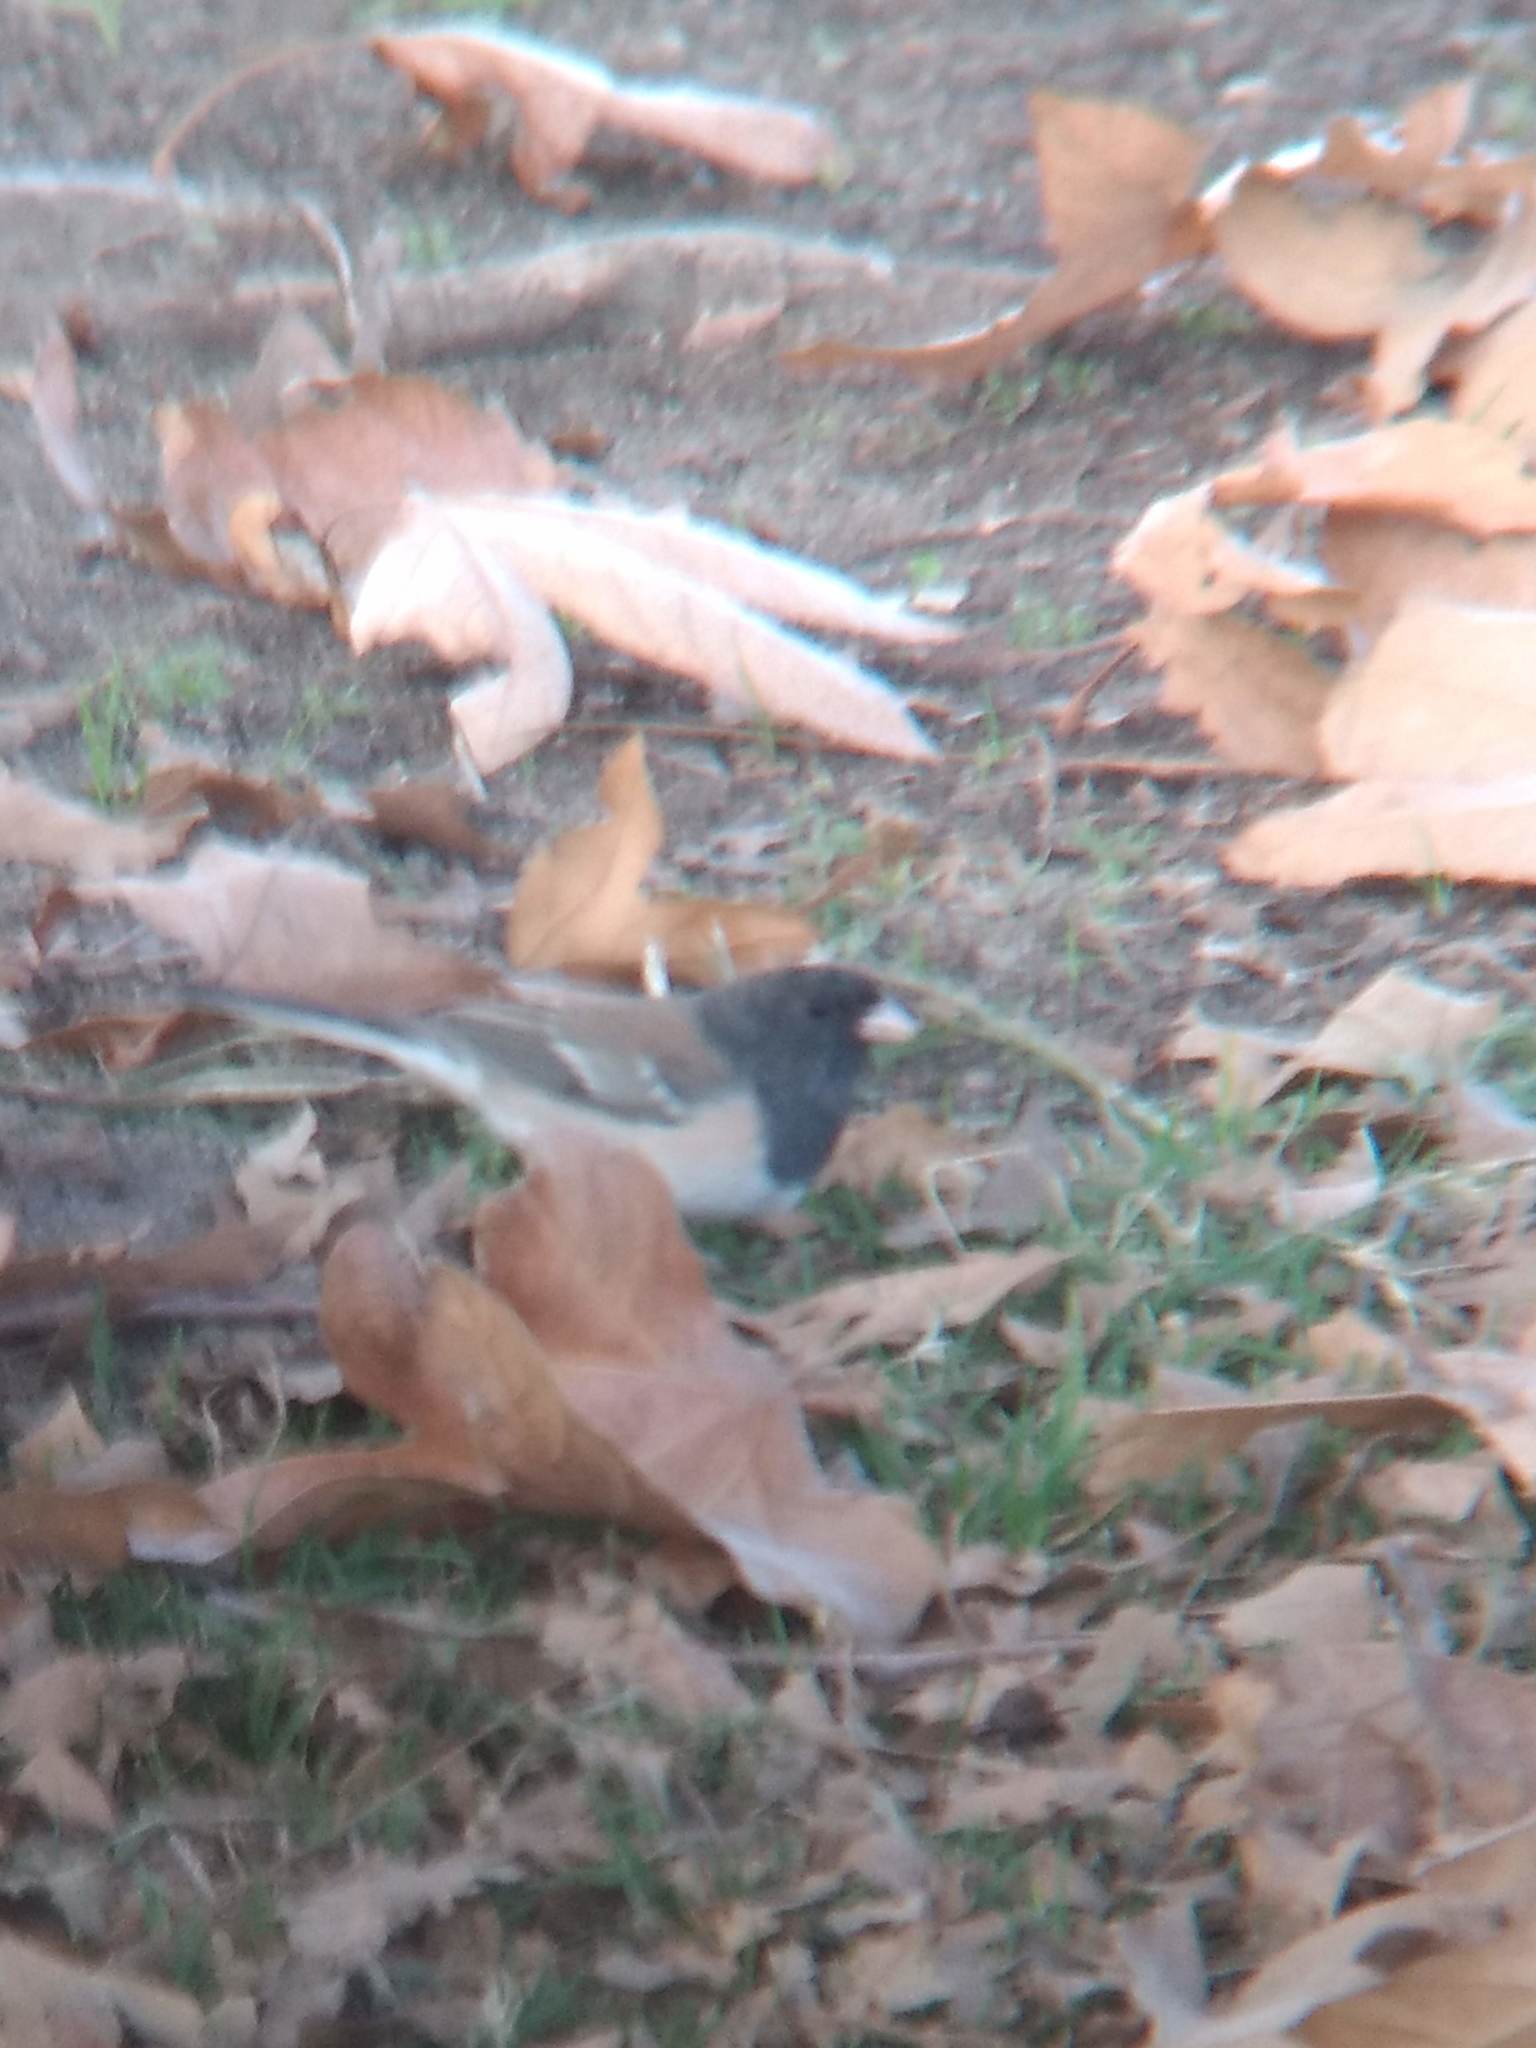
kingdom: Animalia
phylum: Chordata
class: Aves
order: Passeriformes
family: Passerellidae
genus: Junco
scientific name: Junco hyemalis
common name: Dark-eyed junco
